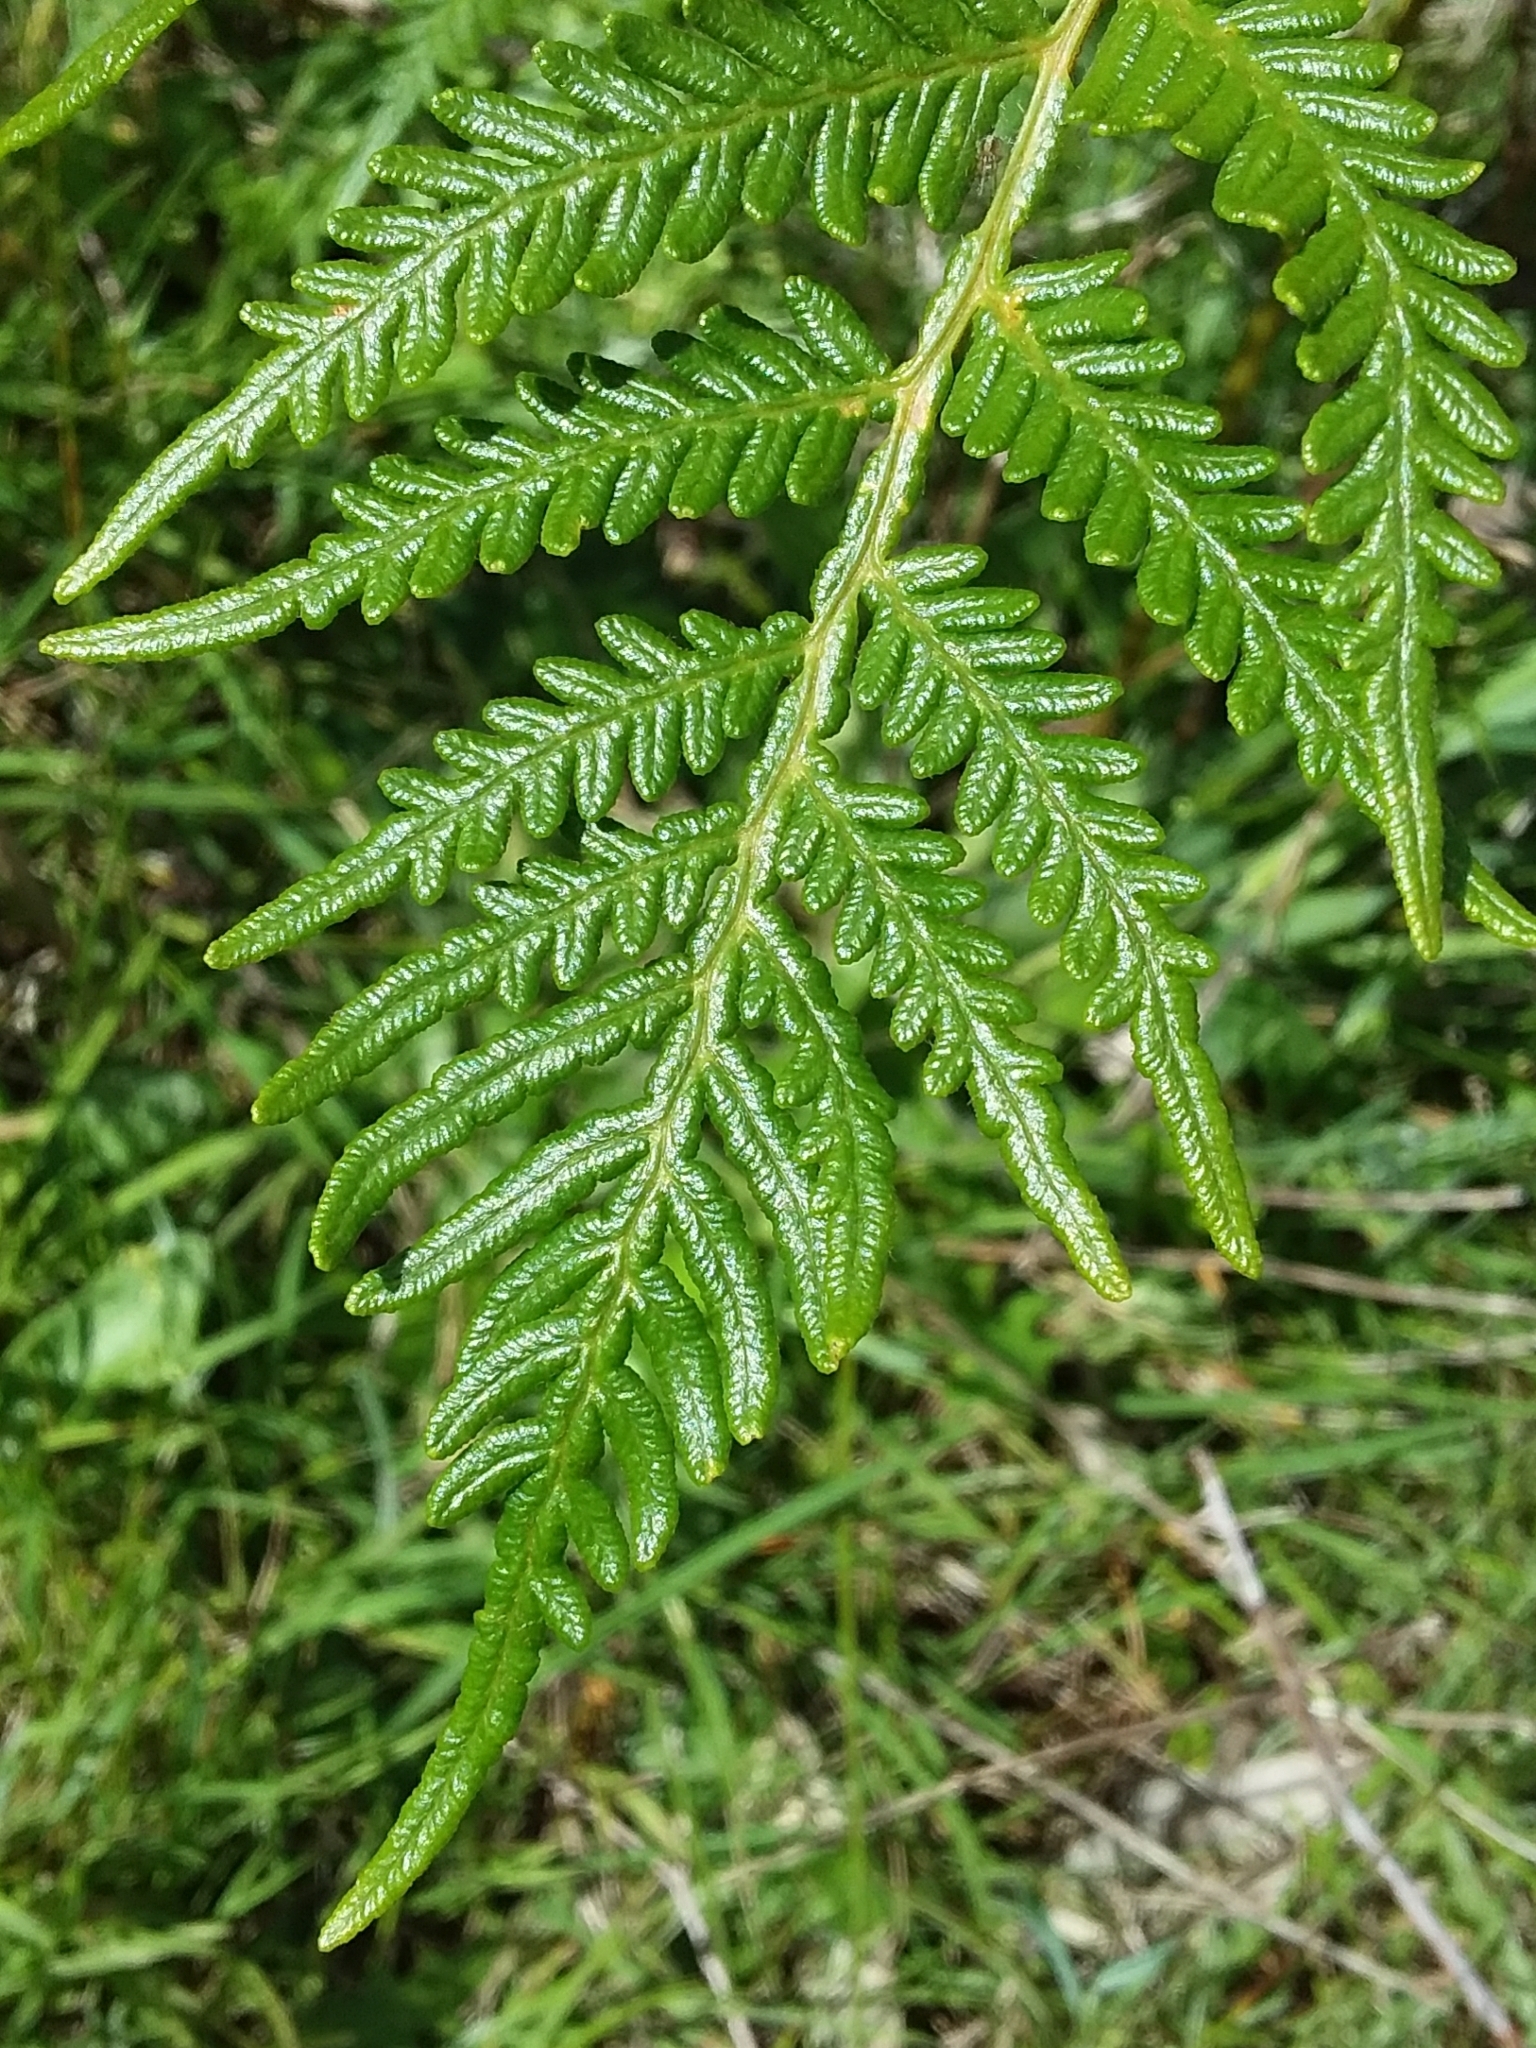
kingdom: Plantae
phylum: Tracheophyta
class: Polypodiopsida
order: Polypodiales
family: Dennstaedtiaceae
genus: Pteridium
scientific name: Pteridium esculentum
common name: Bracken fern
